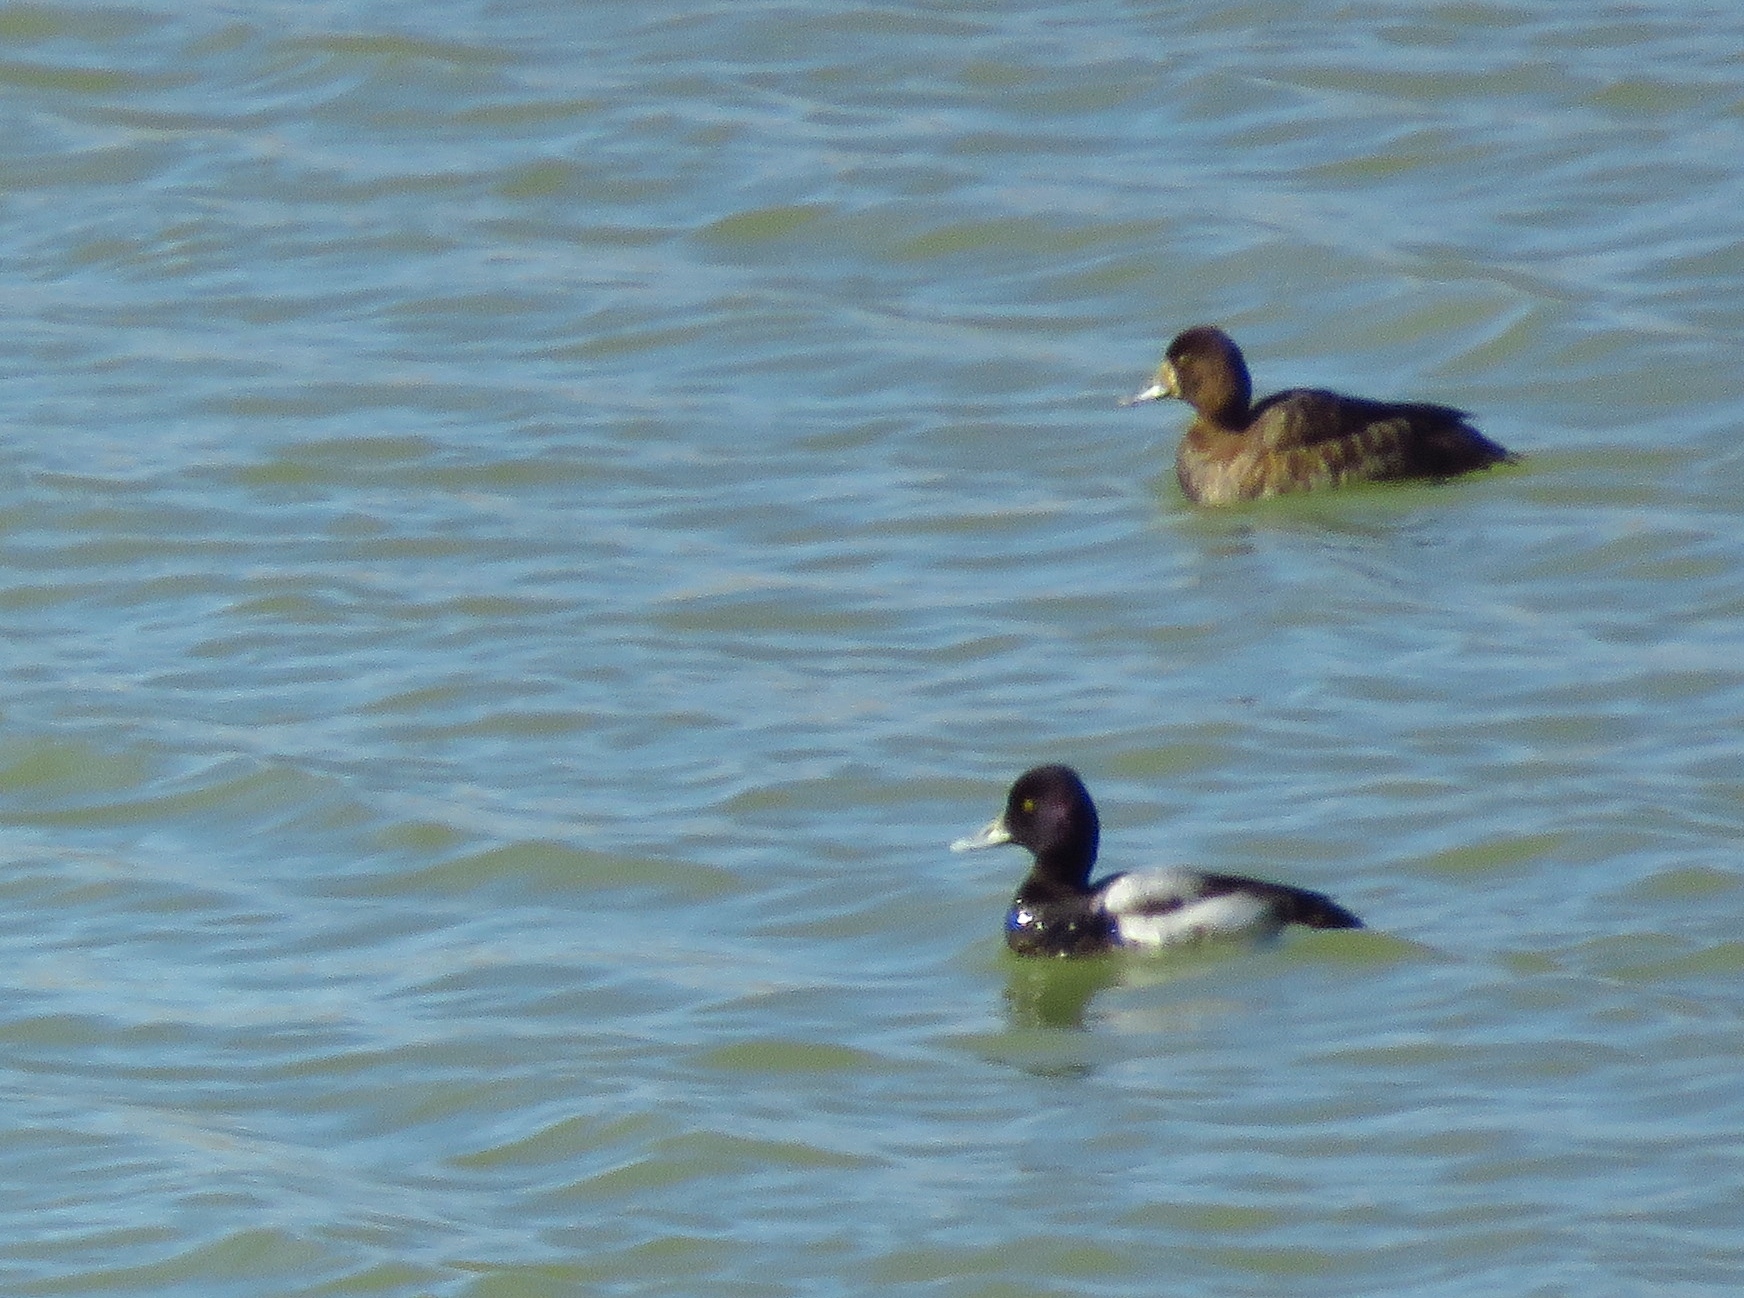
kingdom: Animalia
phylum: Chordata
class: Aves
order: Anseriformes
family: Anatidae
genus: Aythya
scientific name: Aythya affinis
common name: Lesser scaup
